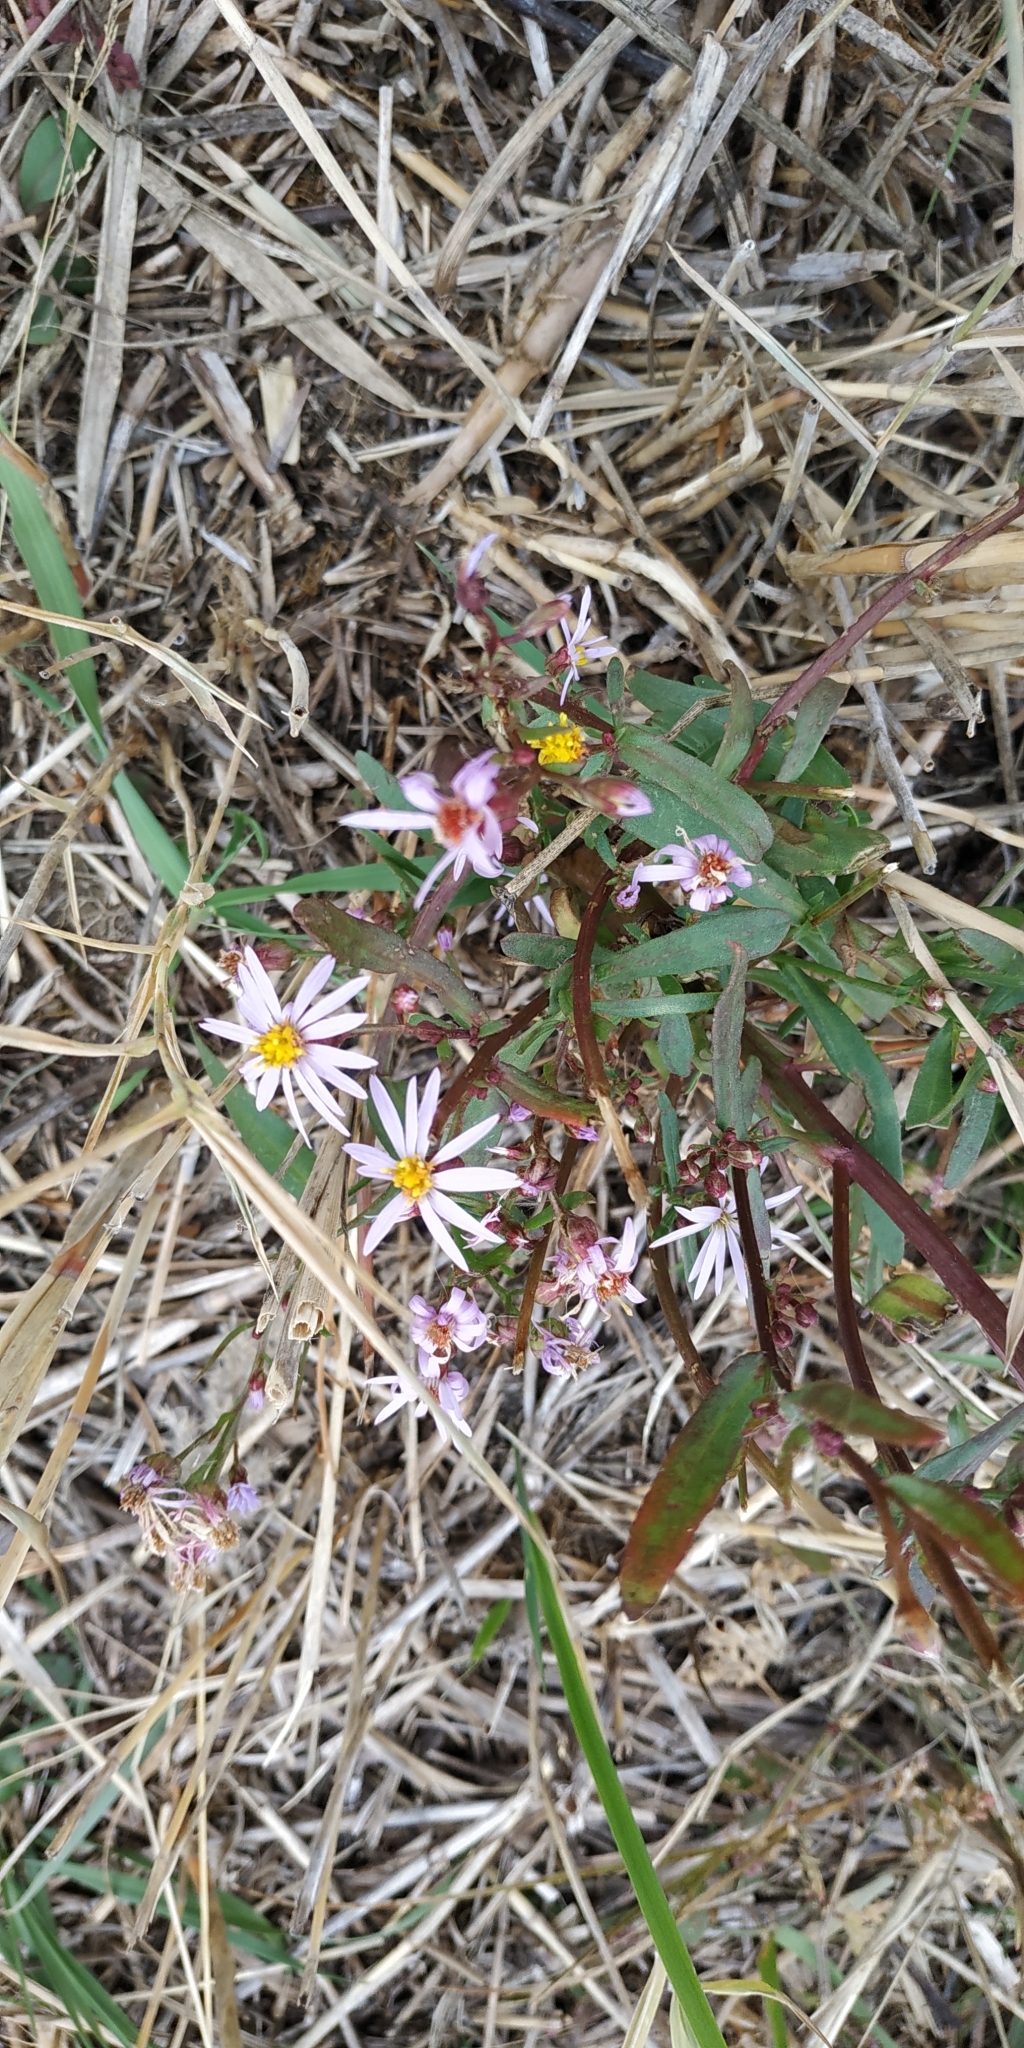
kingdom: Plantae
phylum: Tracheophyta
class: Magnoliopsida
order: Asterales
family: Asteraceae
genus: Tripolium
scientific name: Tripolium pannonicum
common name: Sea aster
